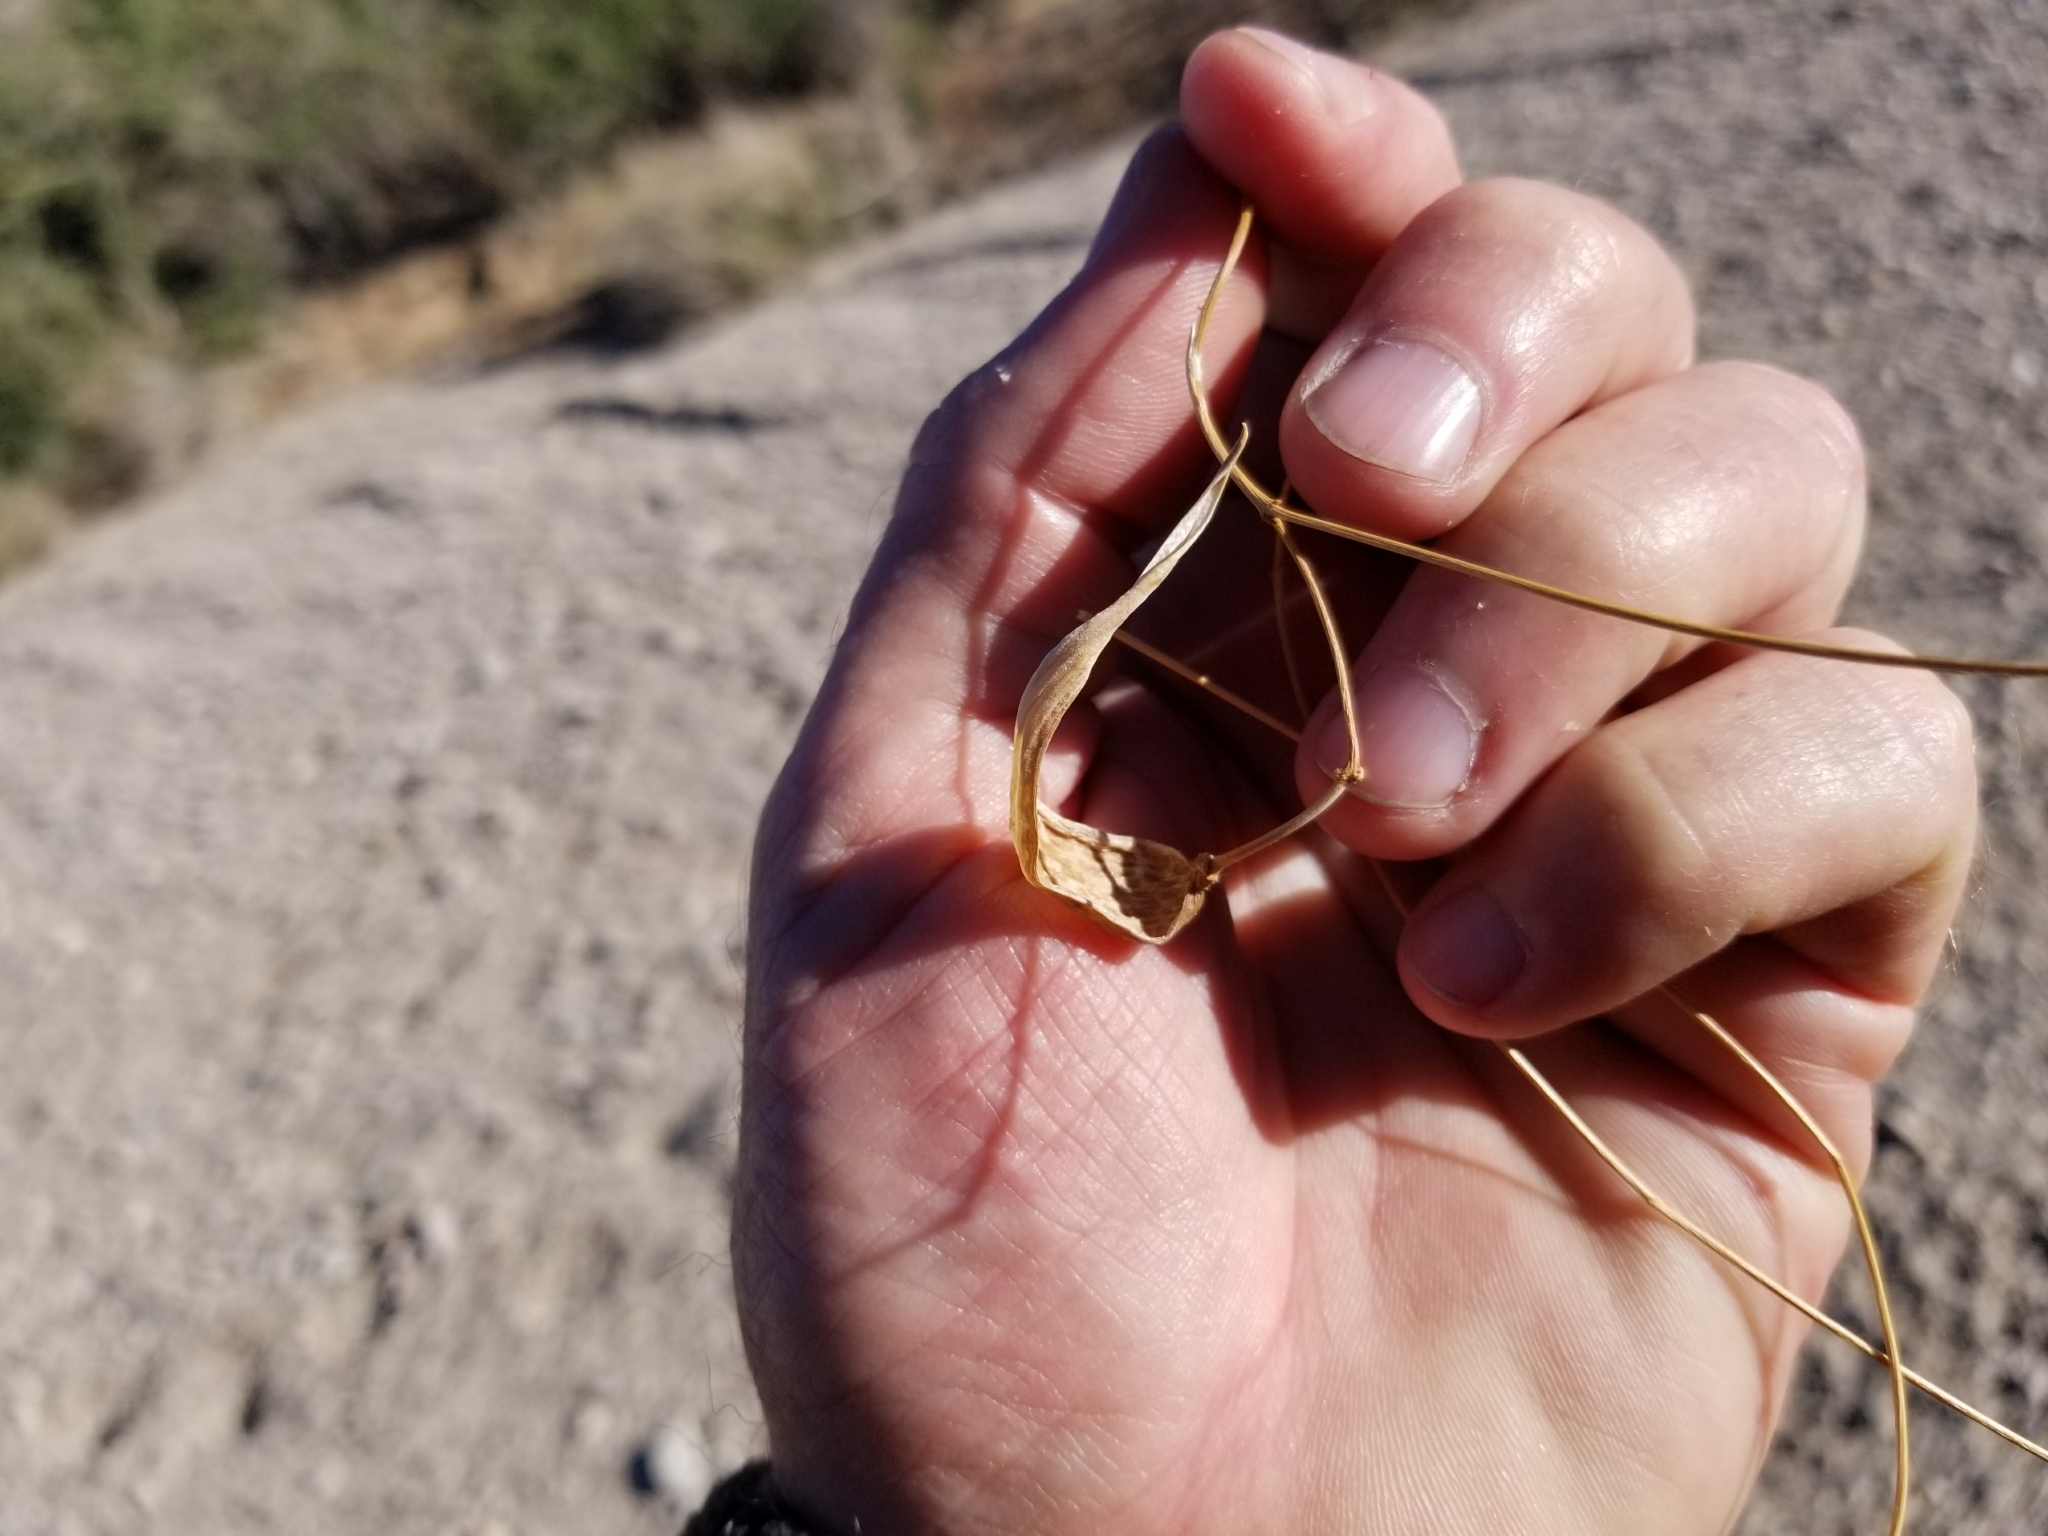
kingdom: Plantae
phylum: Tracheophyta
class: Magnoliopsida
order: Gentianales
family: Apocynaceae
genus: Funastrum
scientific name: Funastrum heterophyllum
